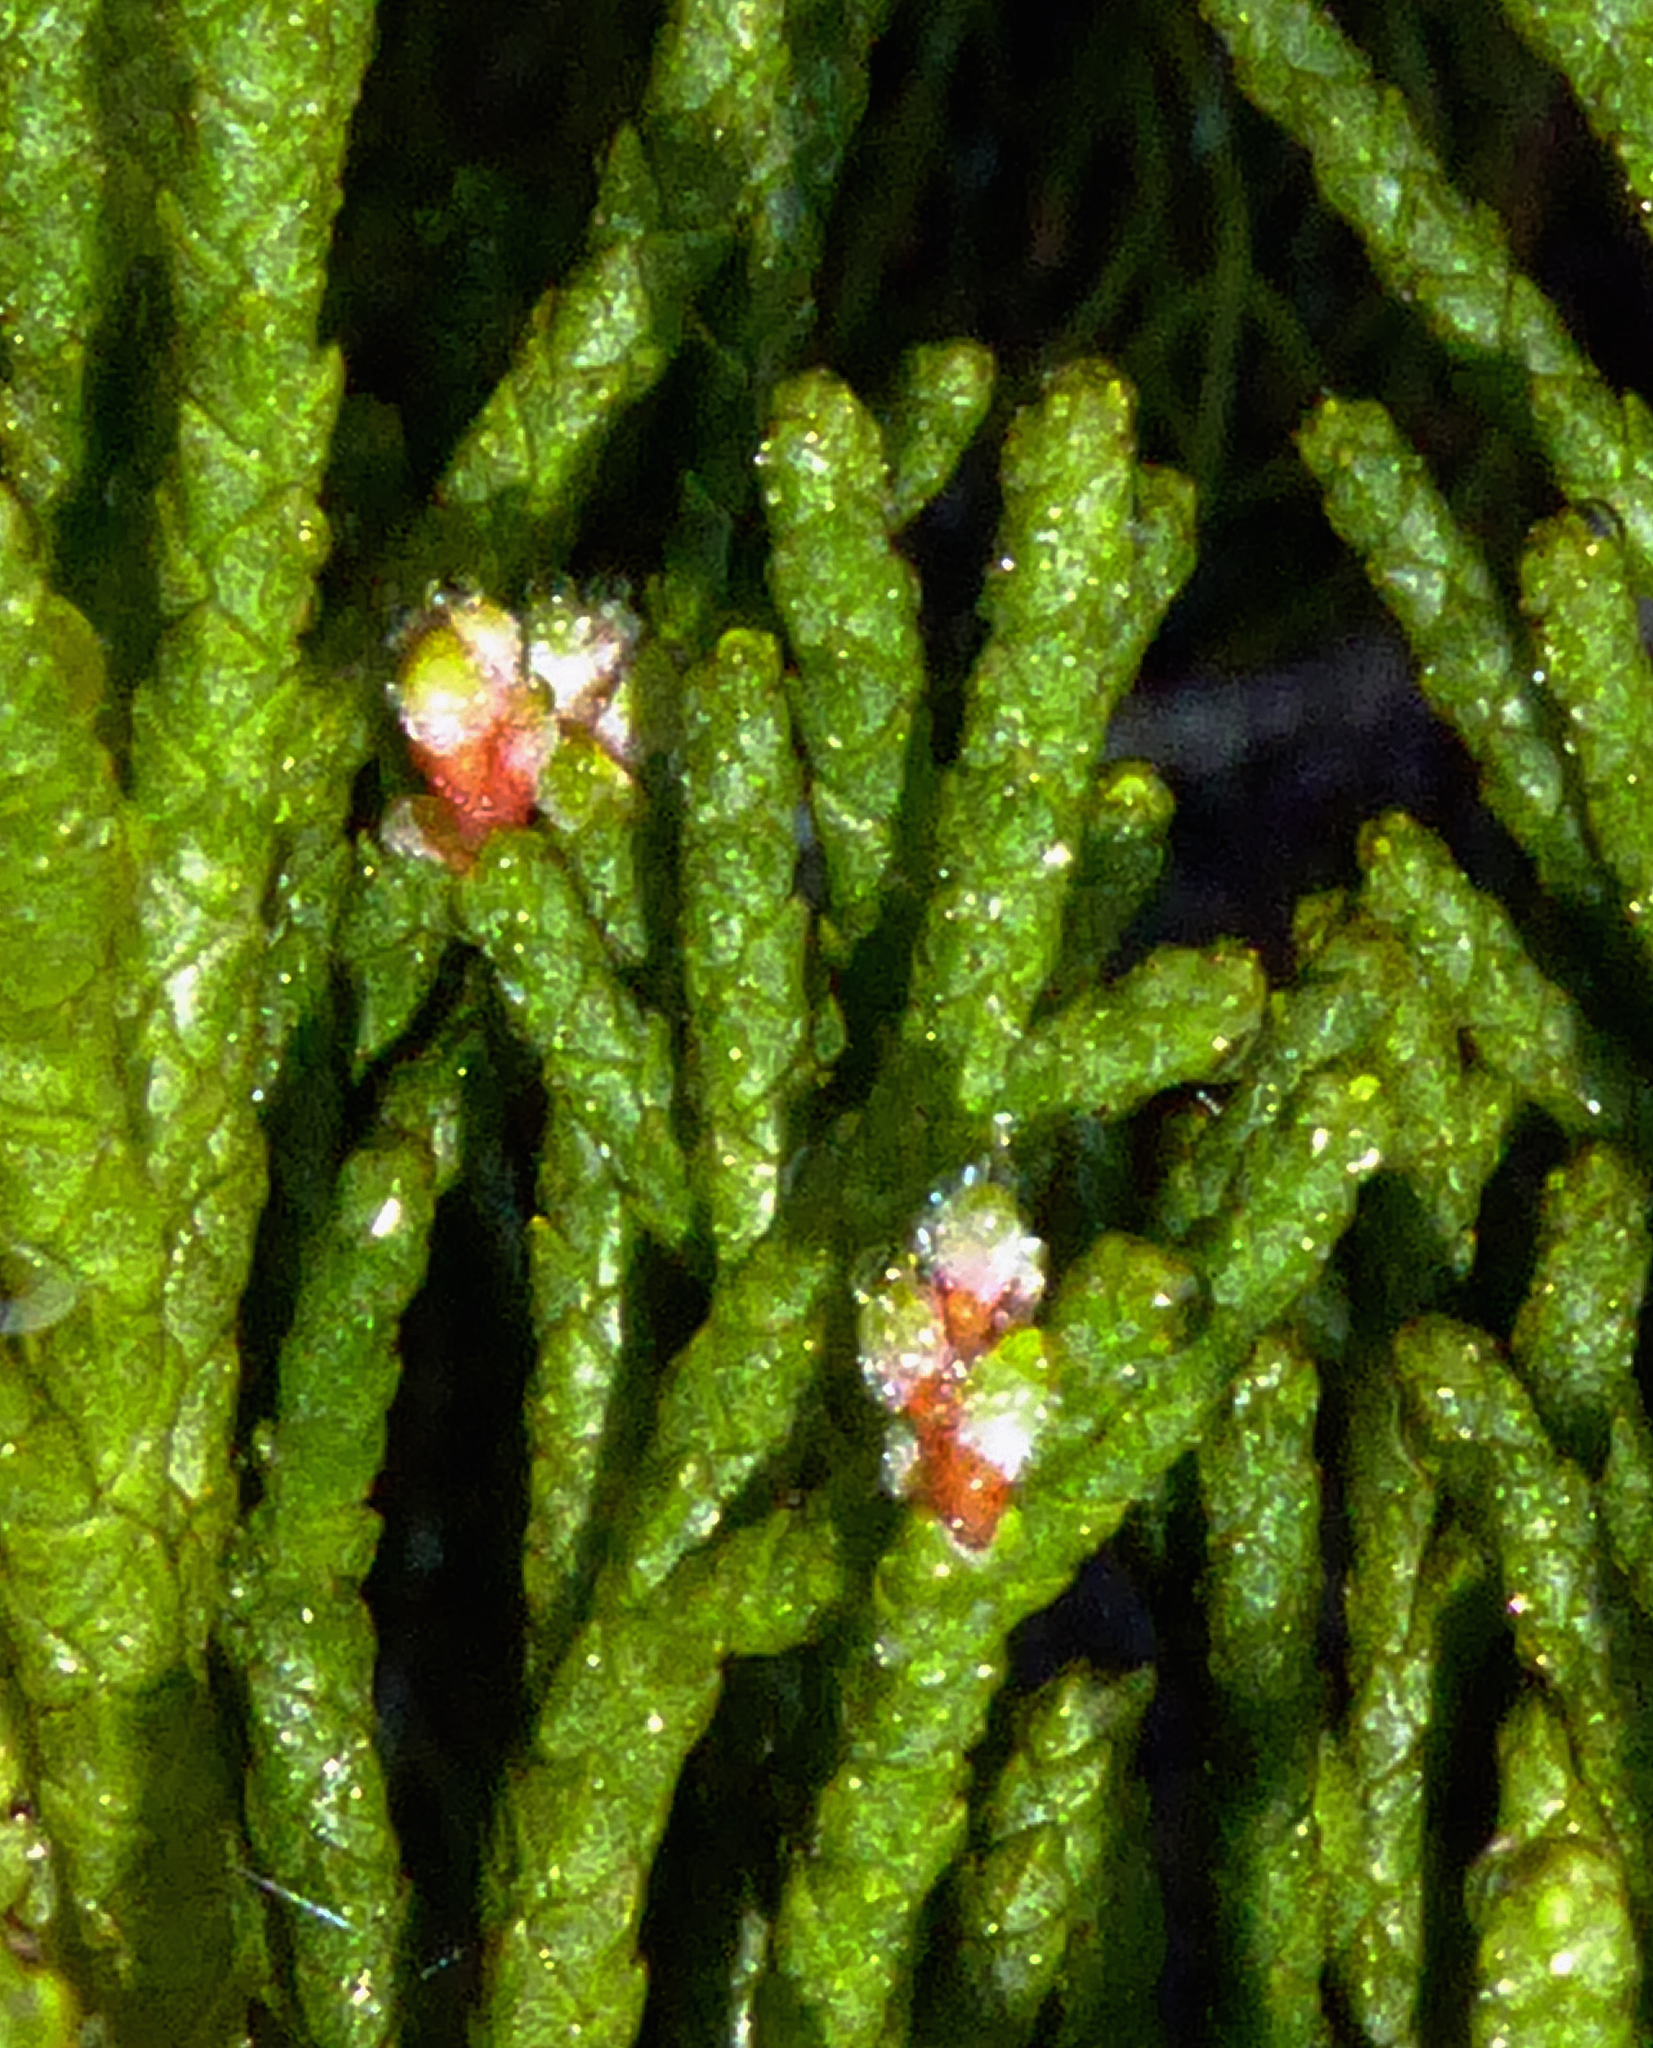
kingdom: Plantae
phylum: Tracheophyta
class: Pinopsida
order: Pinales
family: Podocarpaceae
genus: Manoao
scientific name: Manoao colensoi
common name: Silver pine
